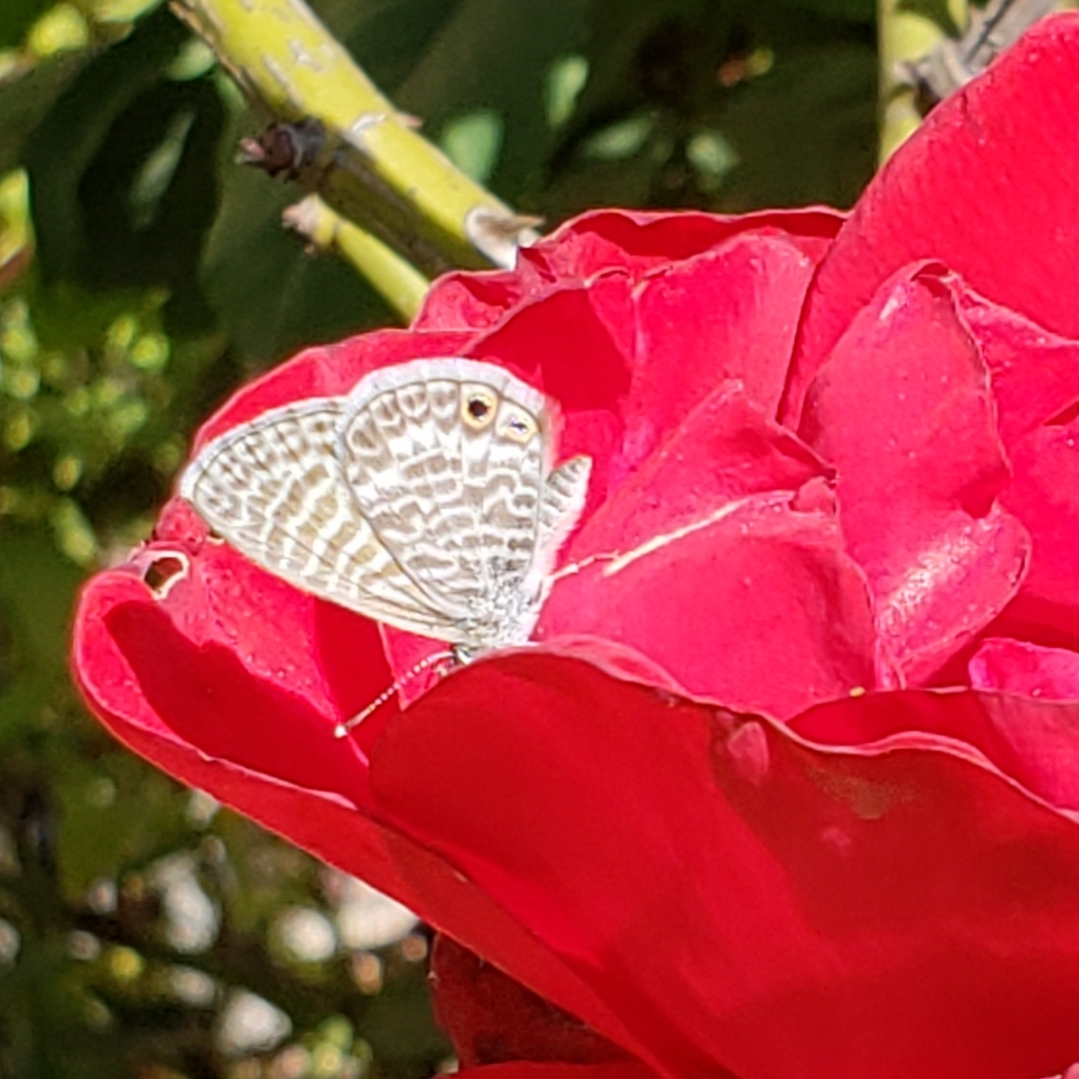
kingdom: Animalia
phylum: Arthropoda
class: Insecta
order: Lepidoptera
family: Lycaenidae
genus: Leptotes
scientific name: Leptotes marina
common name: Marine blue
